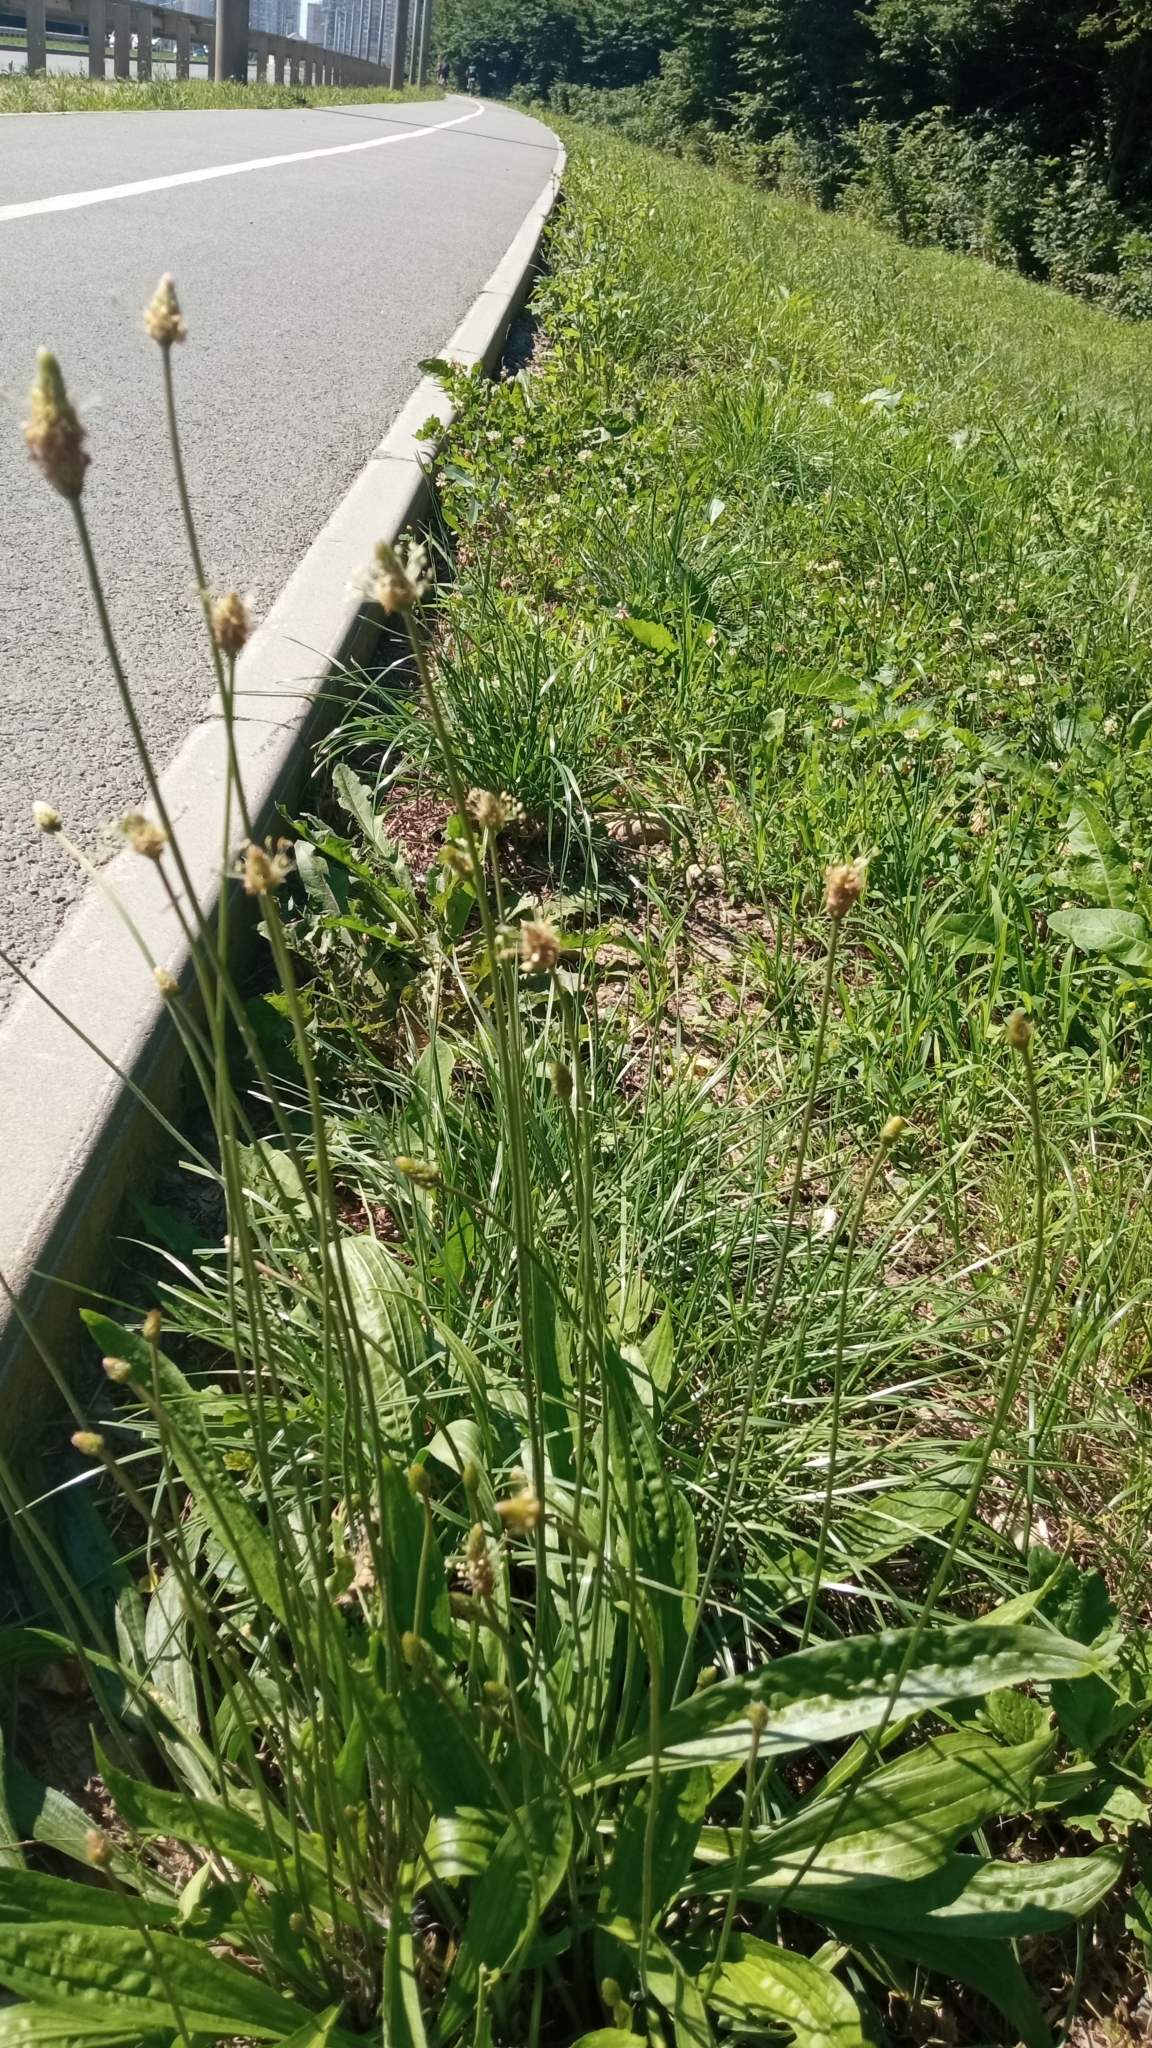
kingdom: Plantae
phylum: Tracheophyta
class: Magnoliopsida
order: Lamiales
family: Plantaginaceae
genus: Plantago
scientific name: Plantago lanceolata
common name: Ribwort plantain
